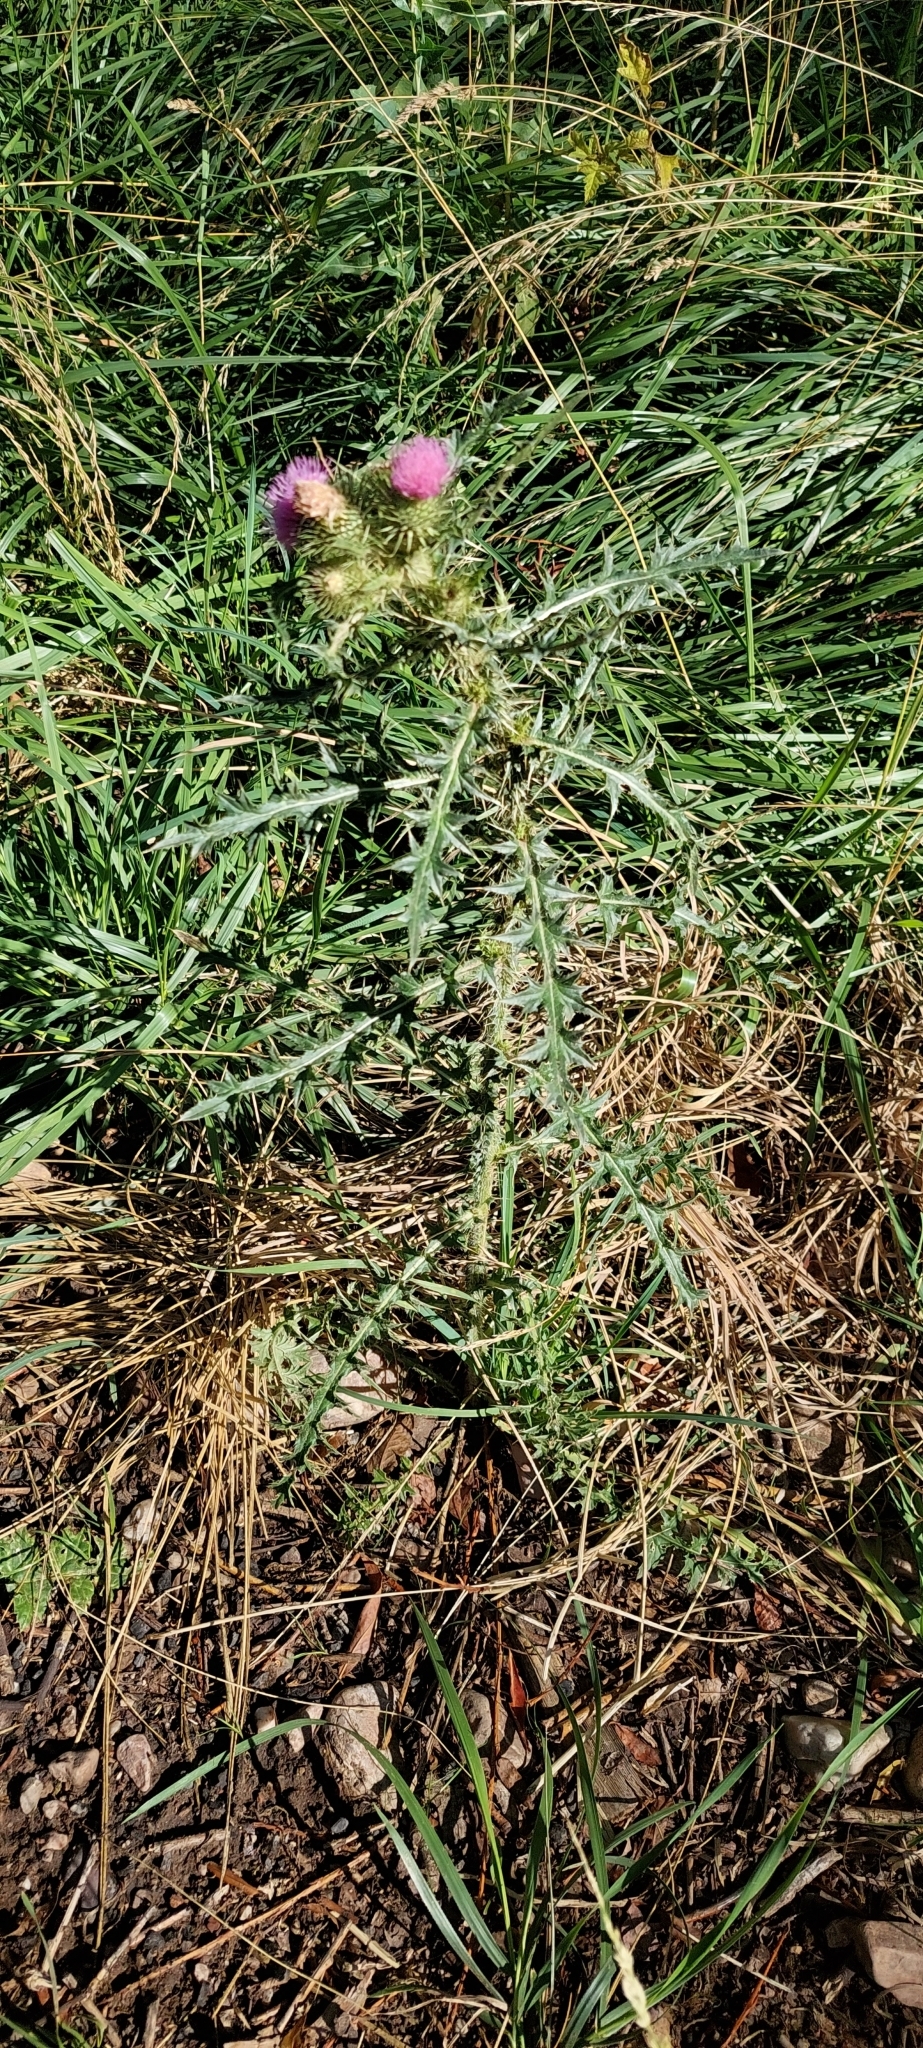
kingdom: Plantae
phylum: Tracheophyta
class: Magnoliopsida
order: Asterales
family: Asteraceae
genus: Carduus
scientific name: Carduus acanthoides
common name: Plumeless thistle
